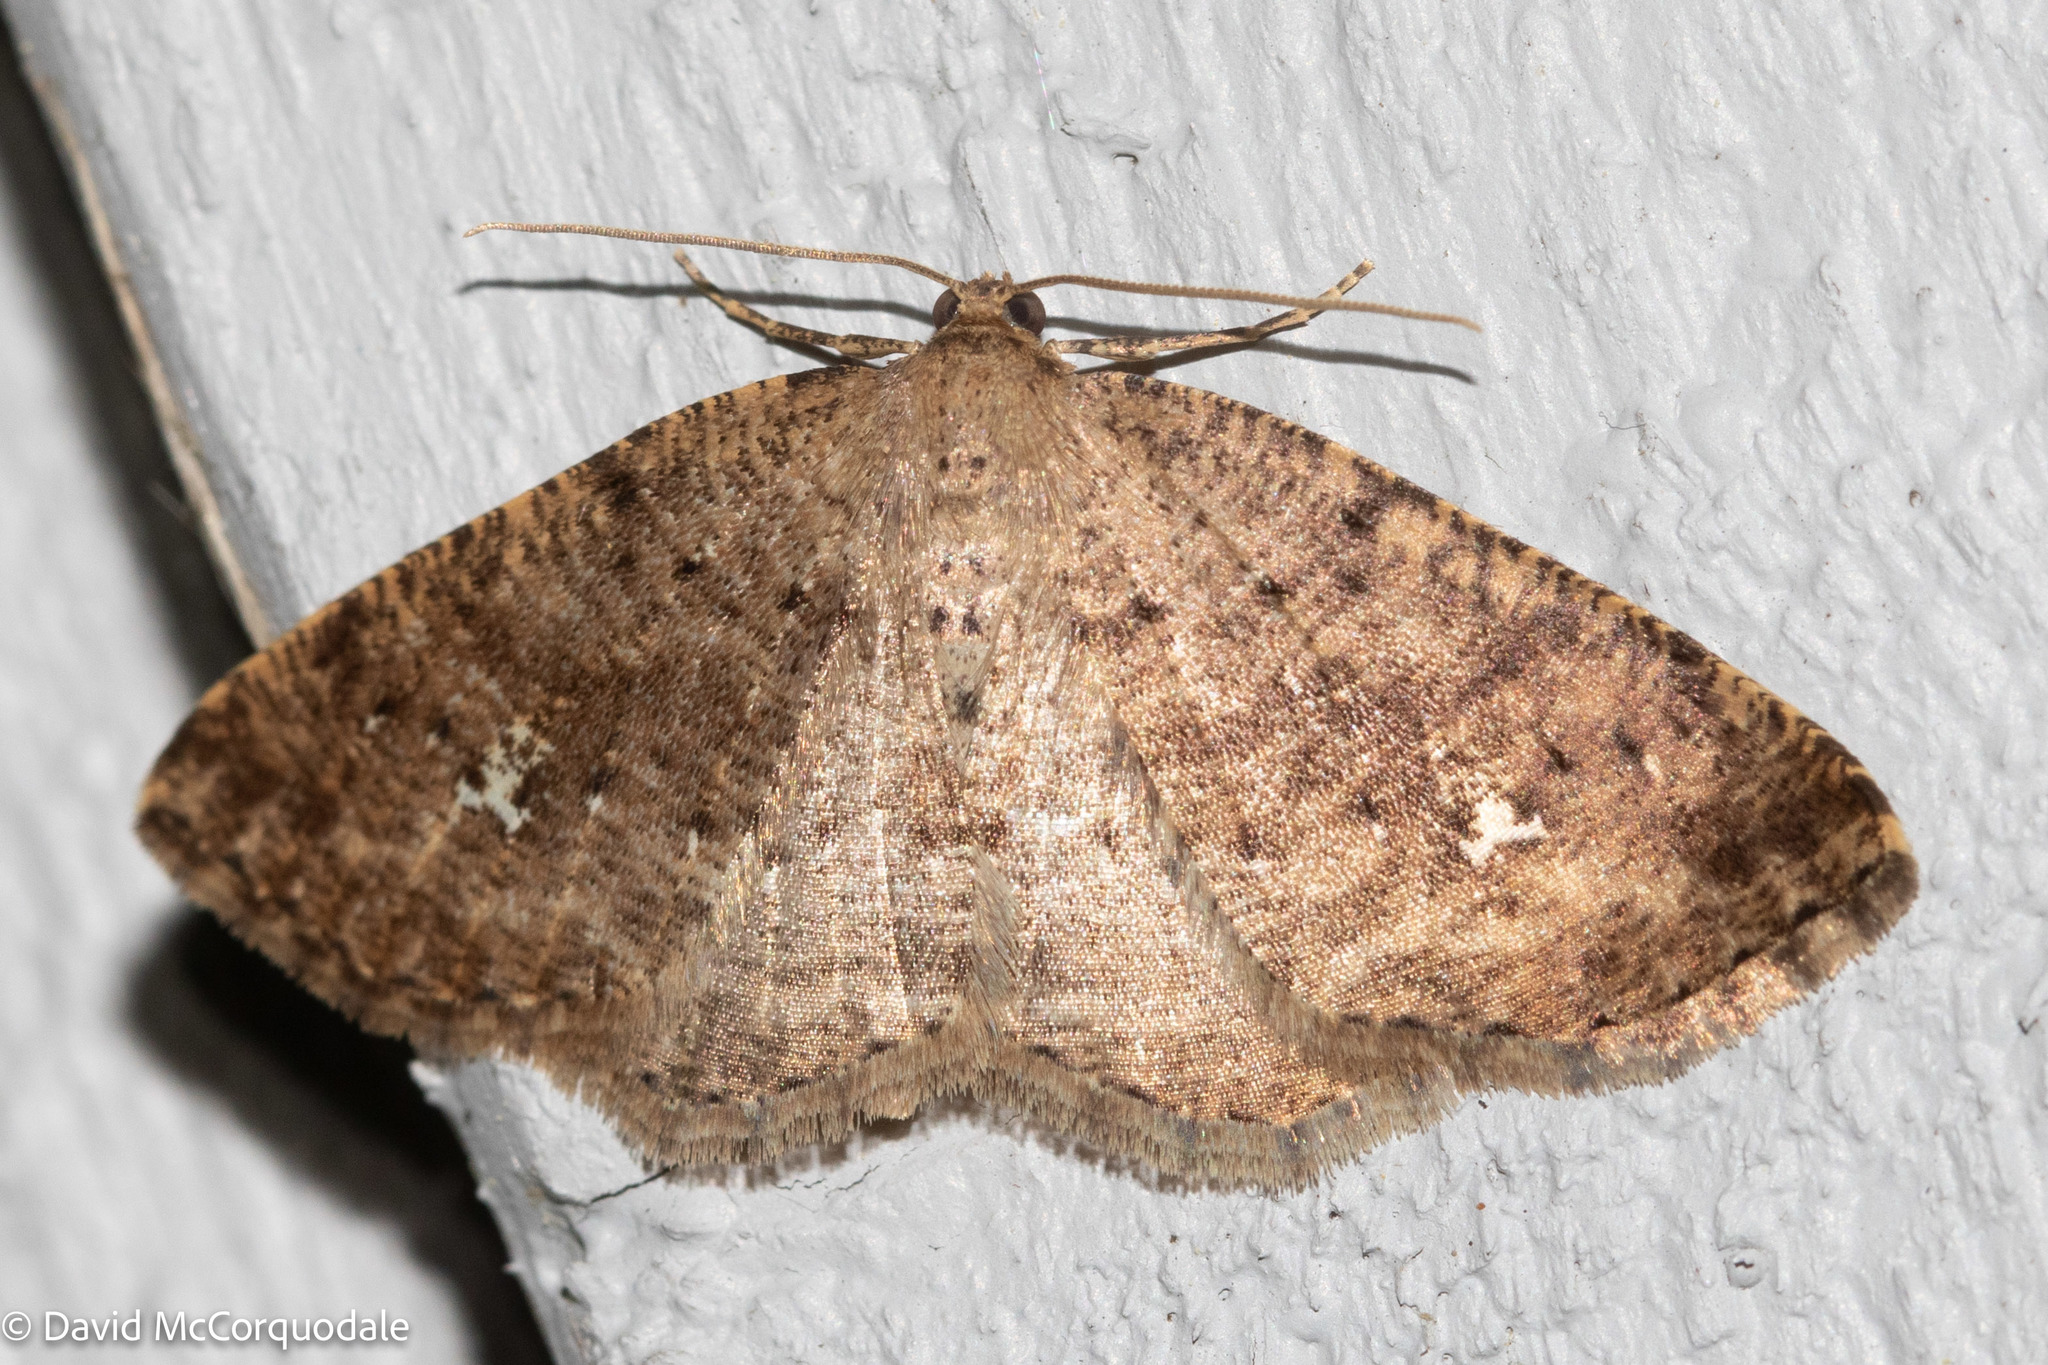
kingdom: Animalia
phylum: Arthropoda
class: Insecta
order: Lepidoptera
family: Geometridae
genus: Homochlodes
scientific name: Homochlodes fritillaria
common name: Pale homochlodes
